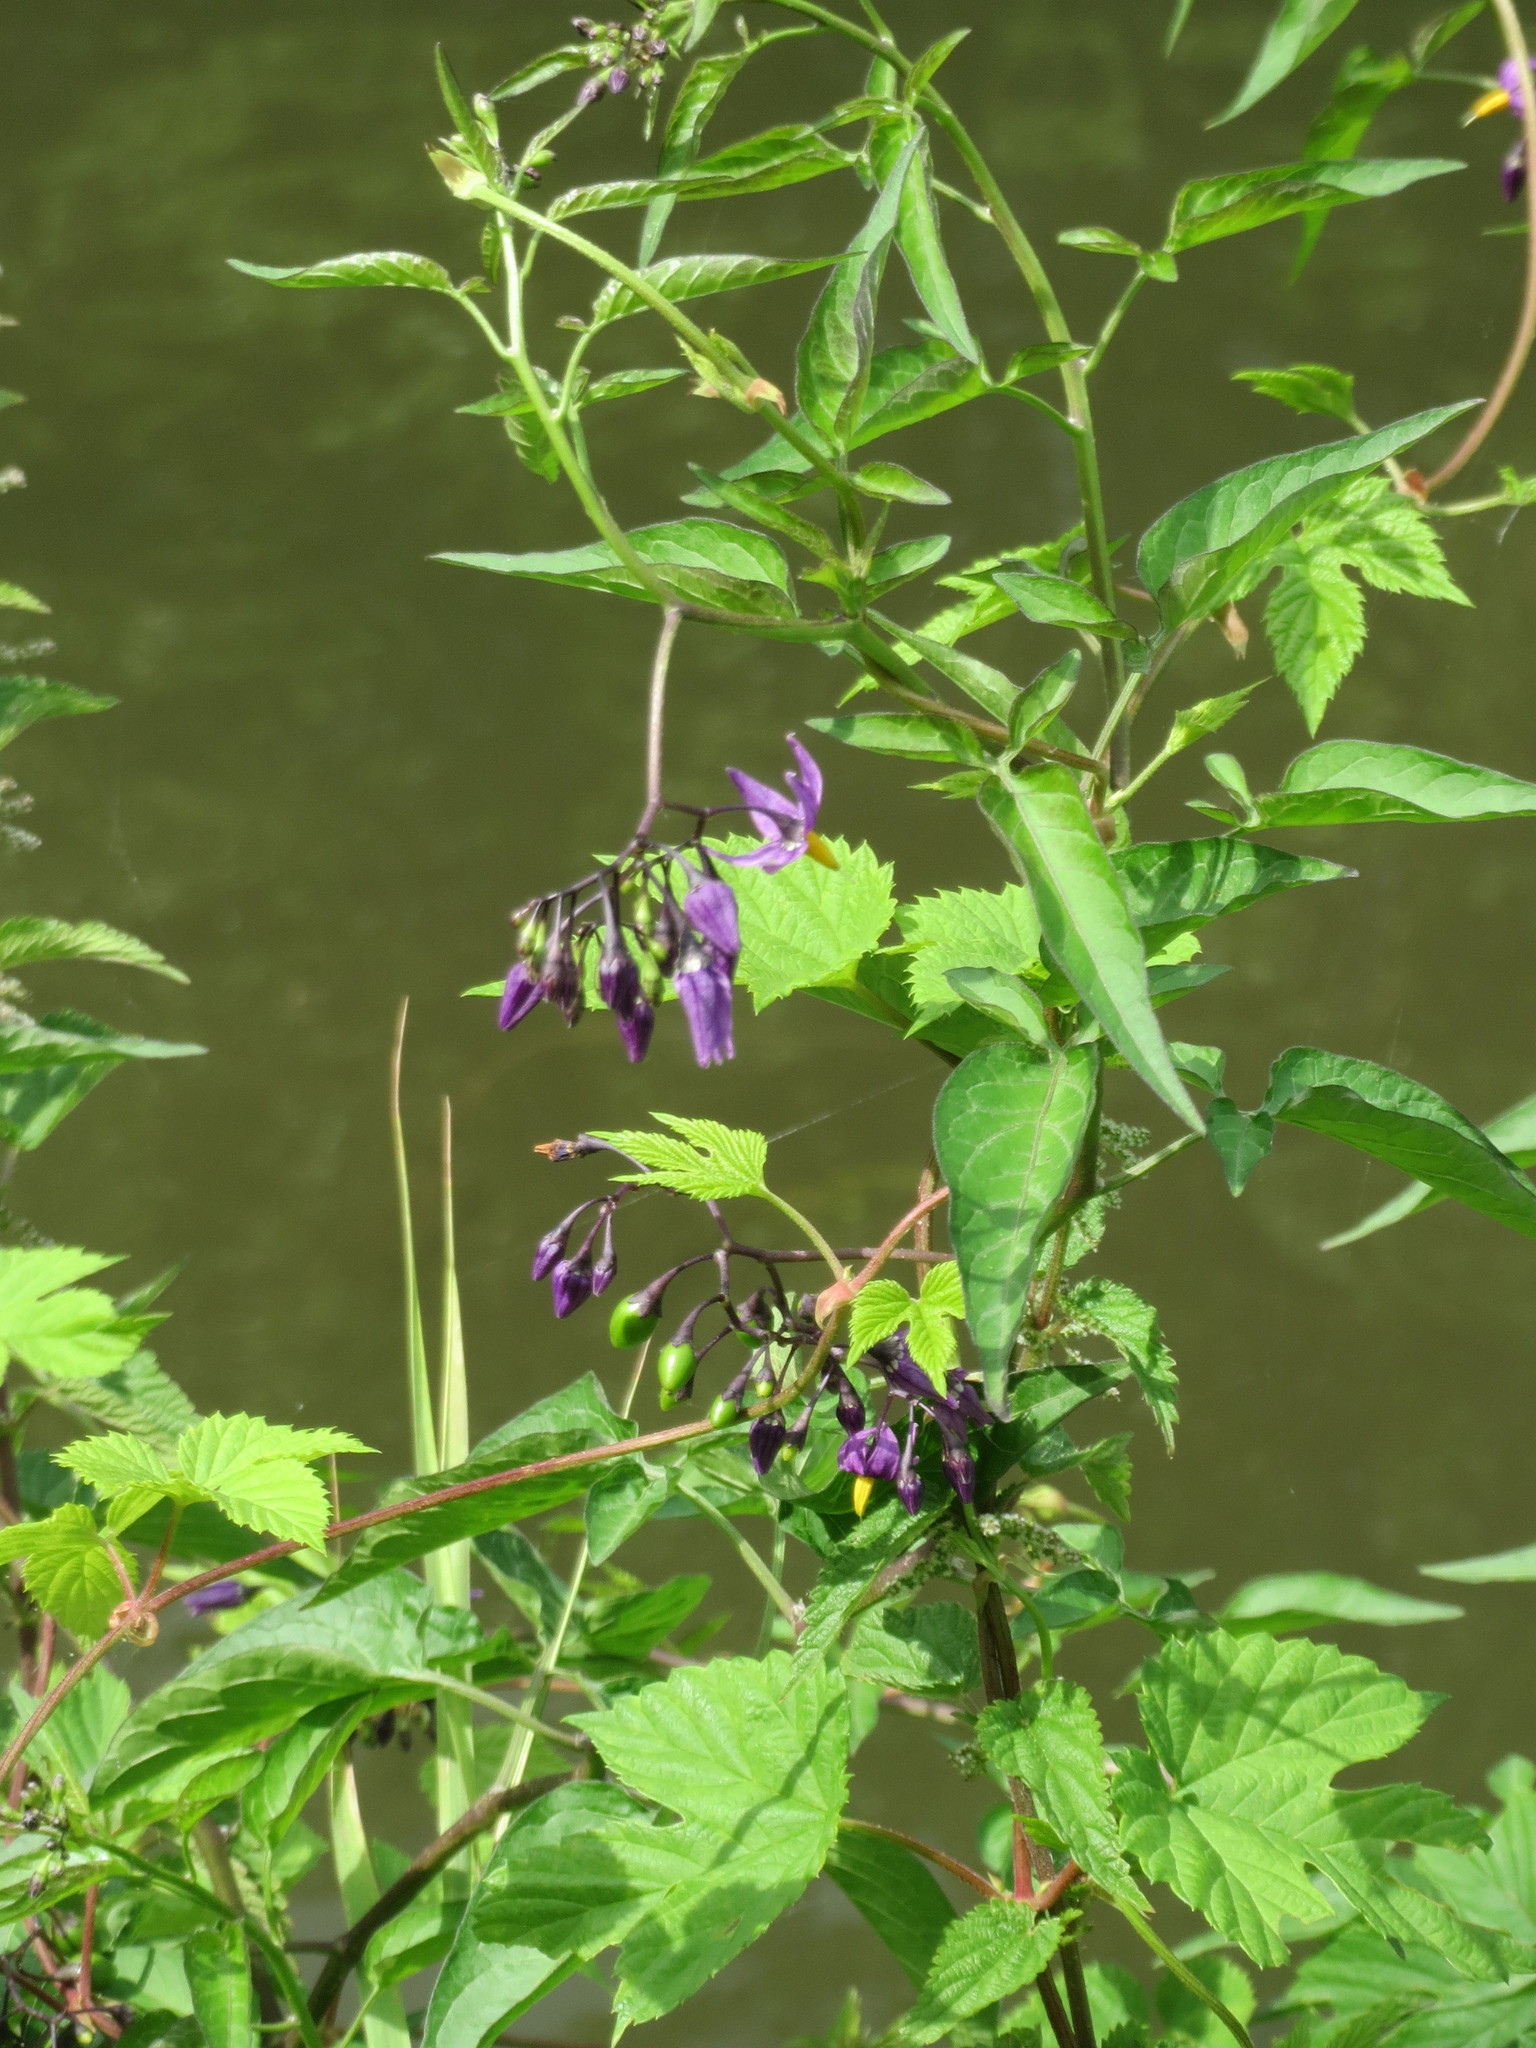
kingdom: Plantae
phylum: Tracheophyta
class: Magnoliopsida
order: Solanales
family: Solanaceae
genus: Solanum
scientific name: Solanum dulcamara
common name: Climbing nightshade
